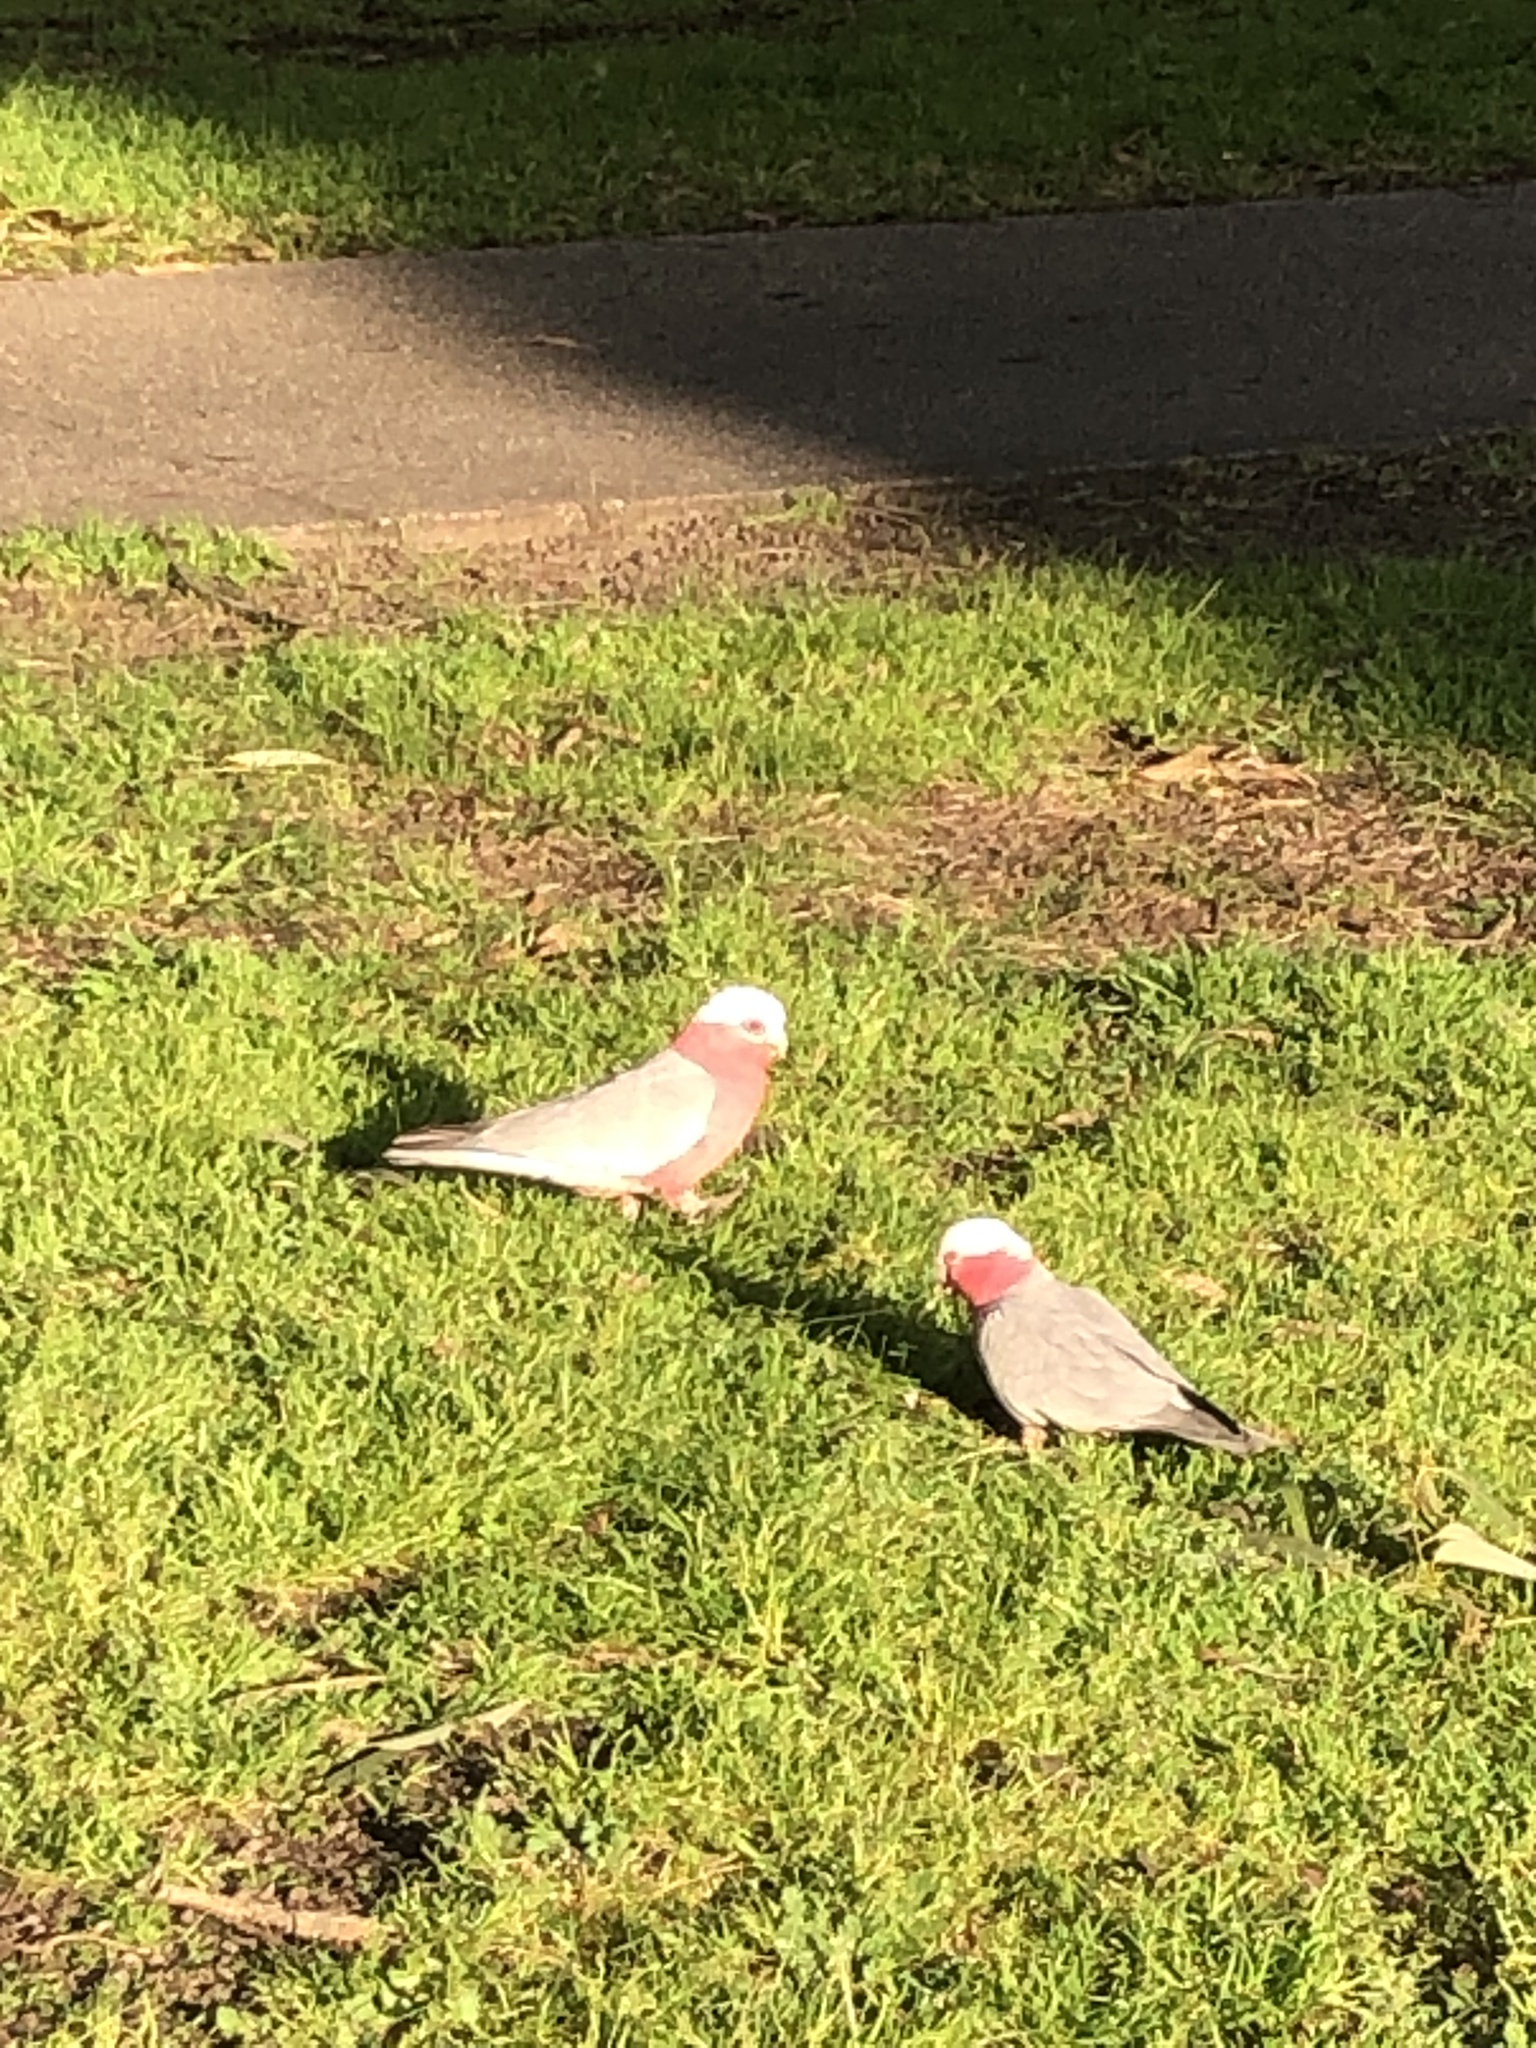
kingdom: Animalia
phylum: Chordata
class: Aves
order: Psittaciformes
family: Psittacidae
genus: Eolophus
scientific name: Eolophus roseicapilla
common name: Galah
